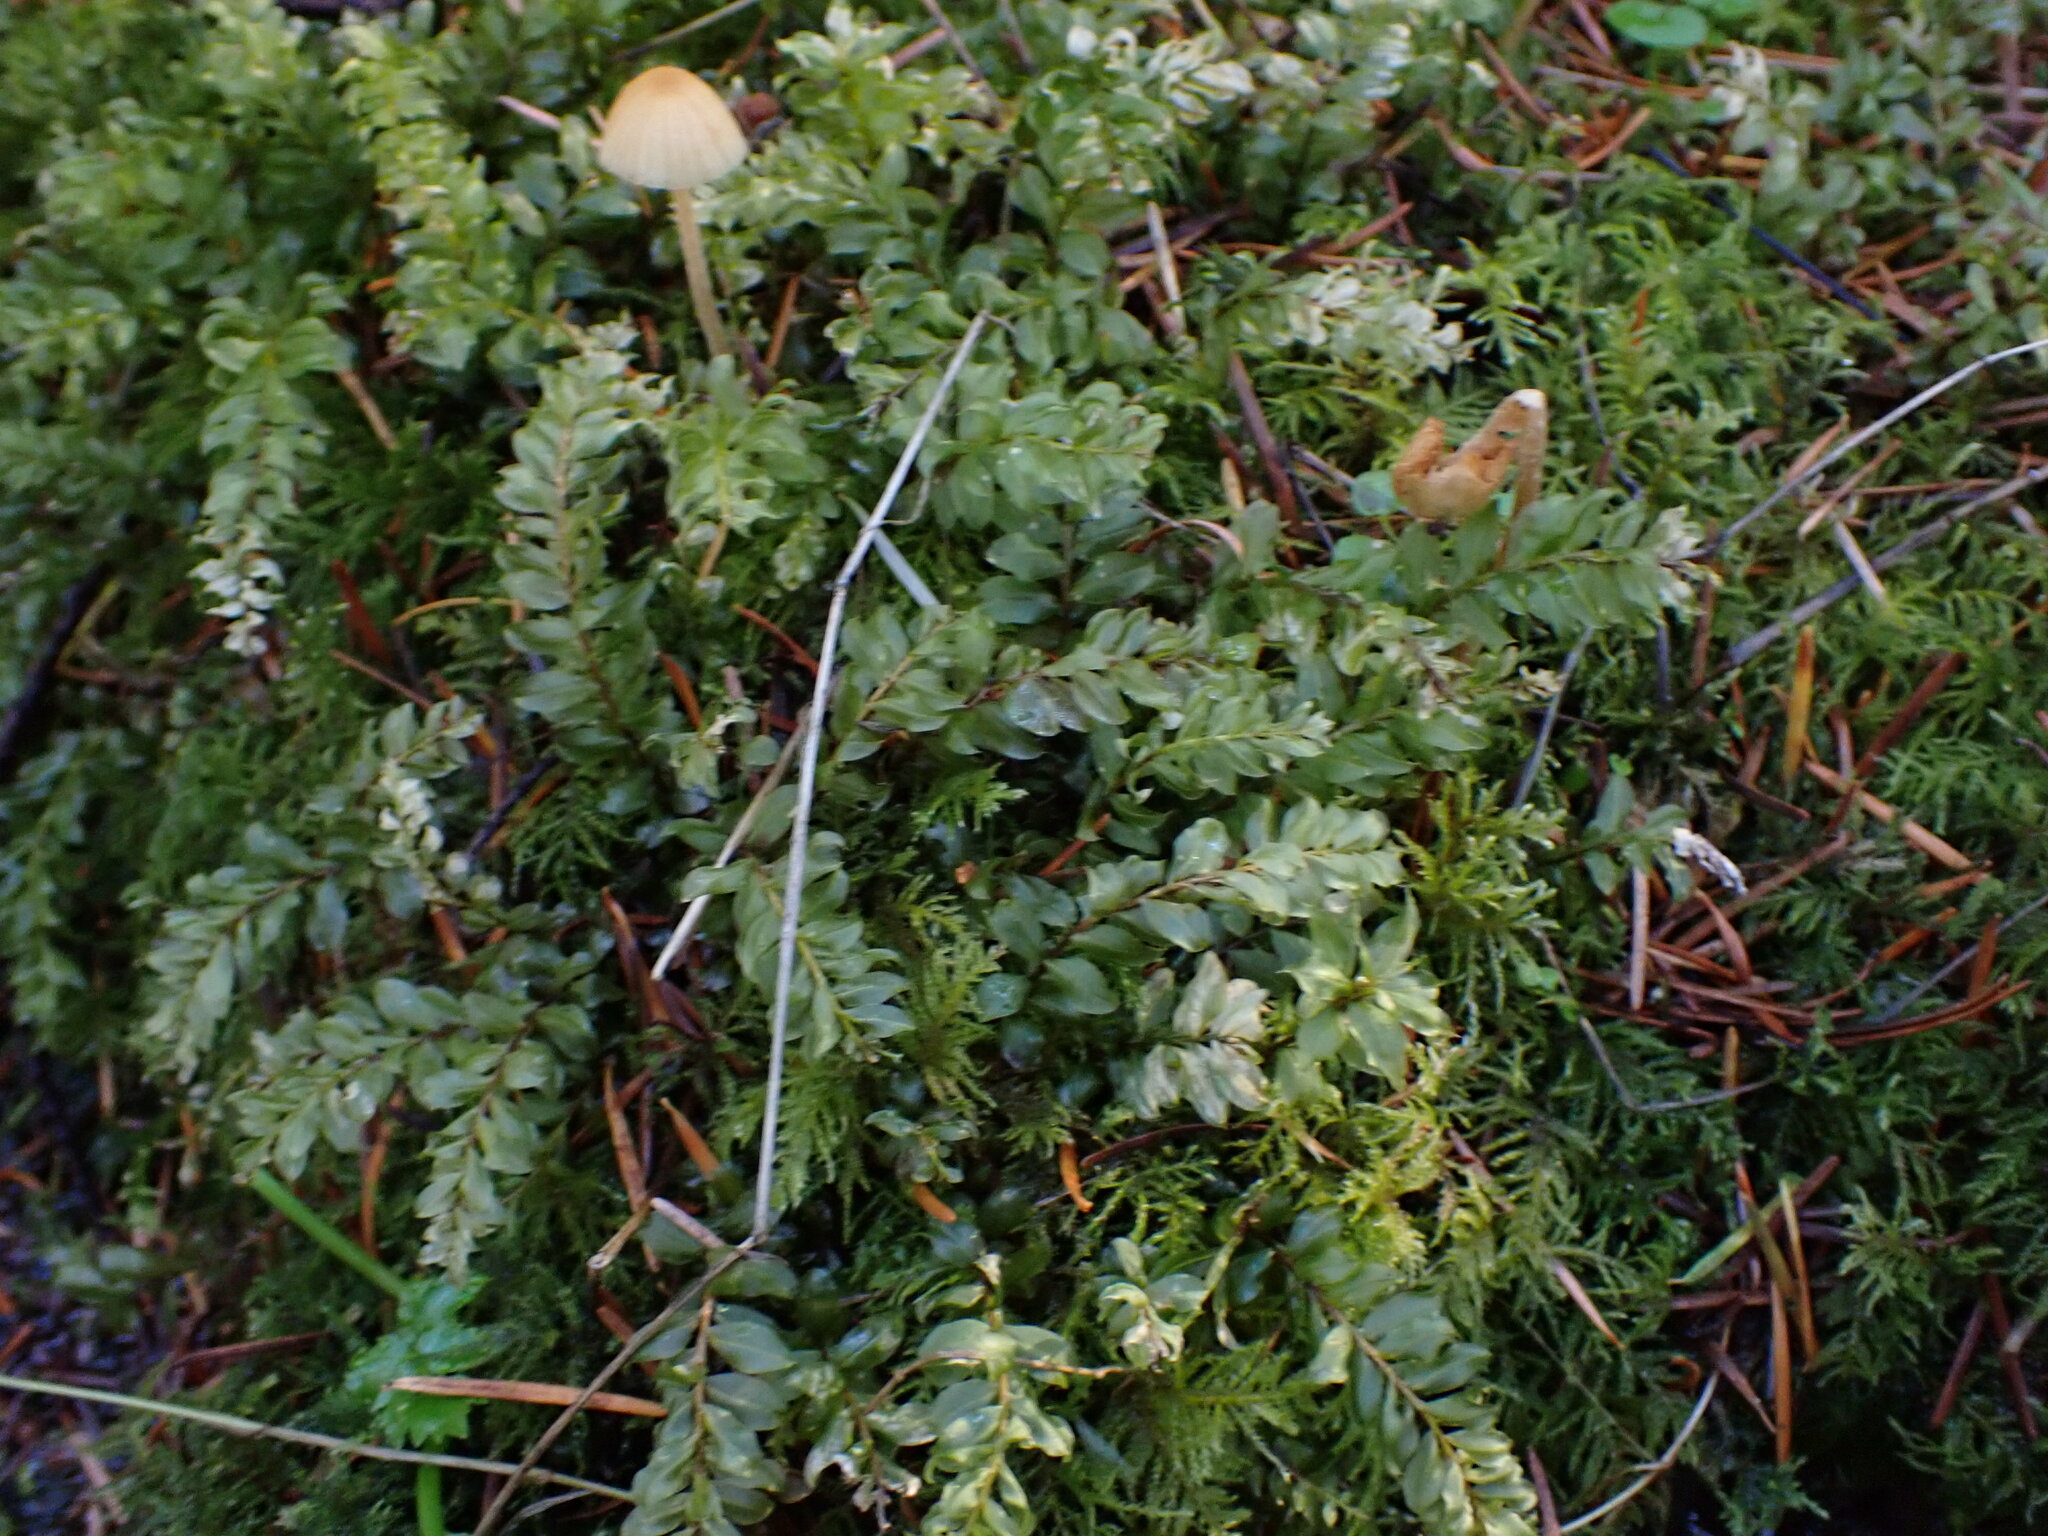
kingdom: Plantae
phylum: Bryophyta
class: Bryopsida
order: Bryales
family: Mniaceae
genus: Plagiomnium
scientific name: Plagiomnium insigne
